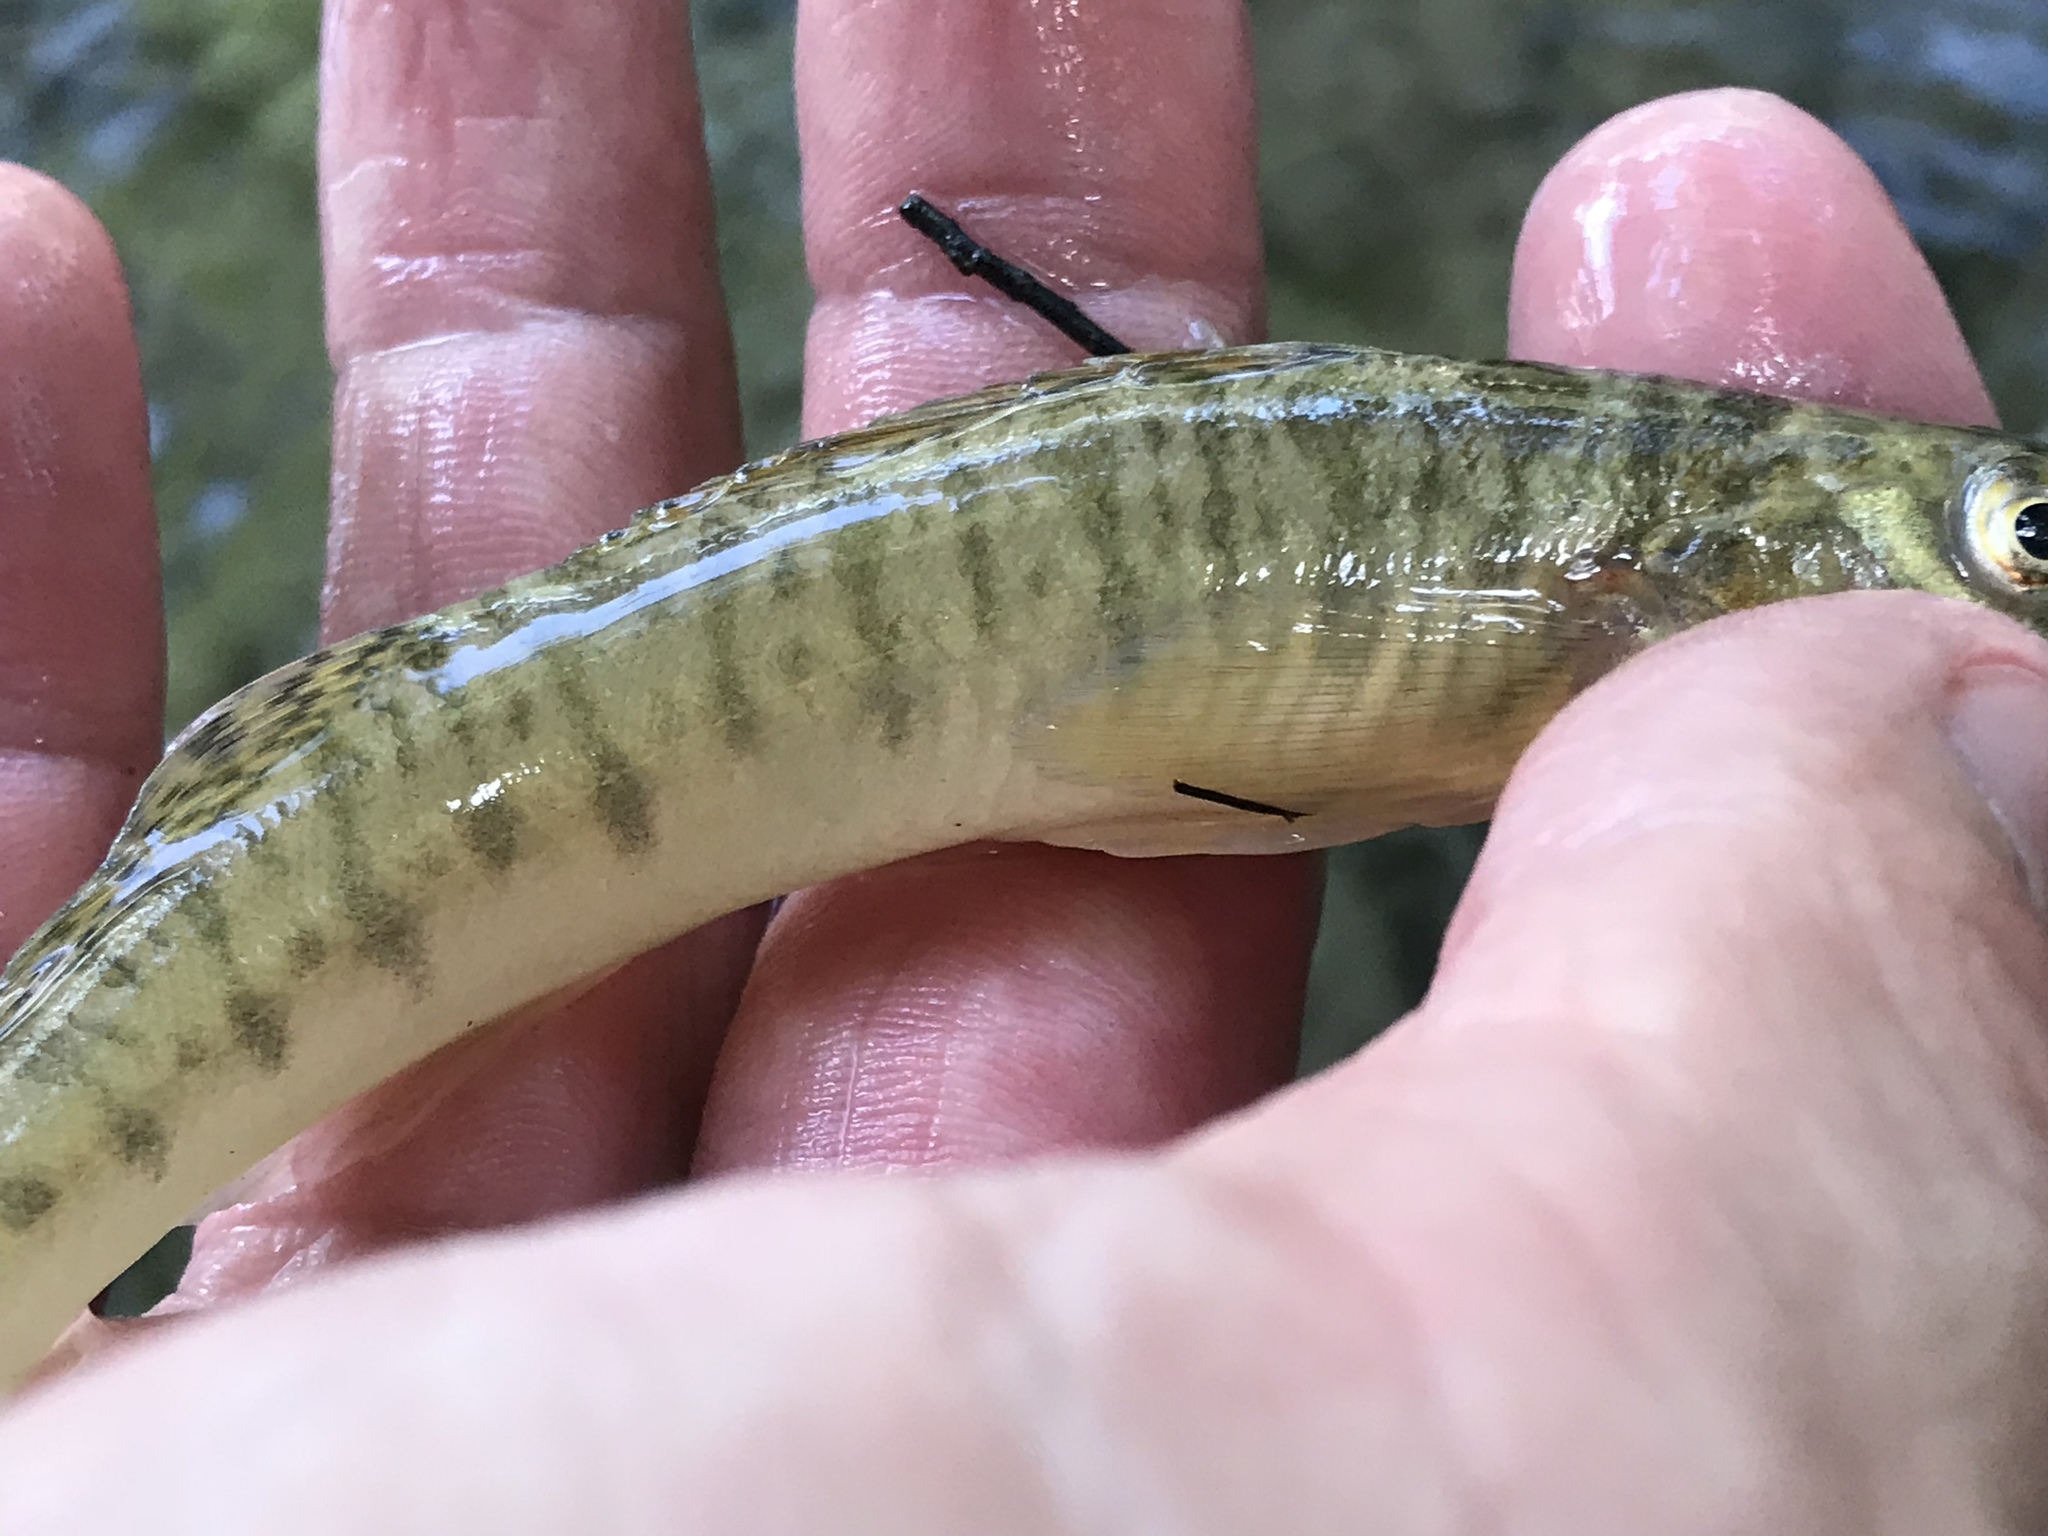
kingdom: Animalia
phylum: Chordata
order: Perciformes
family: Percidae
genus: Percina
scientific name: Percina carbonaria
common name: Texas logperch
